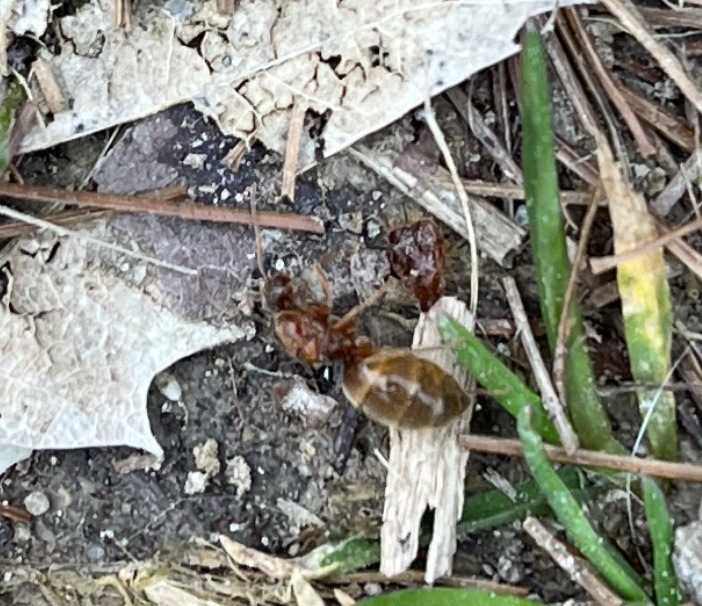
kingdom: Animalia
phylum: Arthropoda
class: Insecta
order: Hymenoptera
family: Formicidae
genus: Prenolepis
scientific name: Prenolepis imparis
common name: Small honey ant
